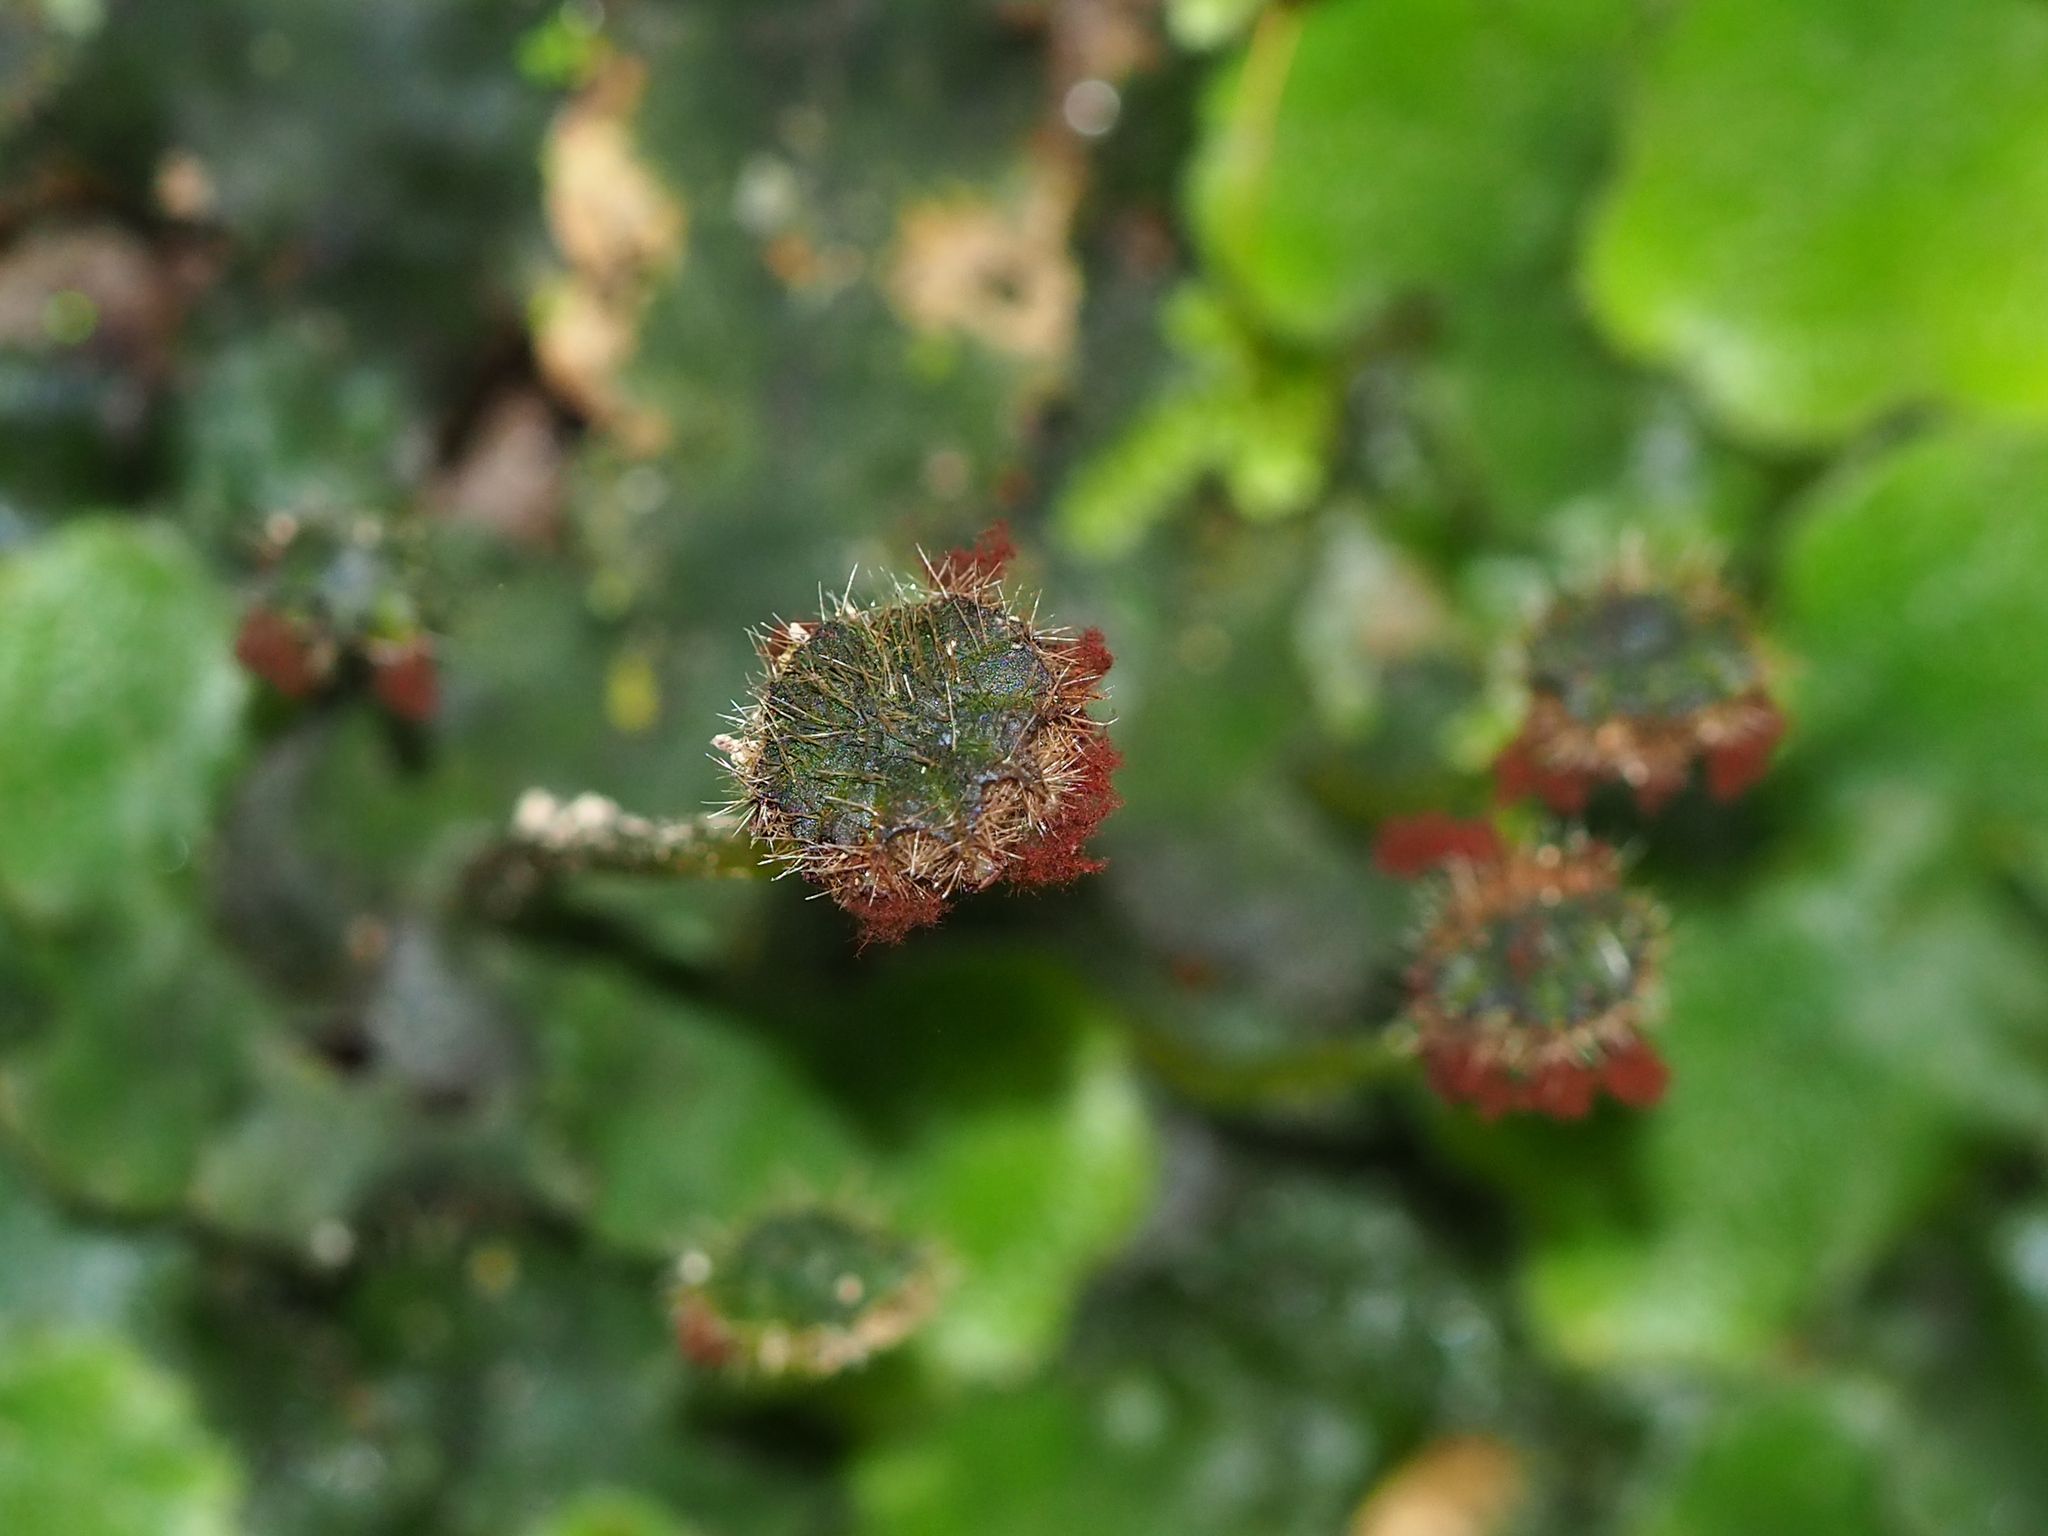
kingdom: Plantae
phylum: Marchantiophyta
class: Marchantiopsida
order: Marchantiales
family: Dumortieraceae
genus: Dumortiera
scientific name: Dumortiera hirsuta
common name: Dumortier's liverwort
